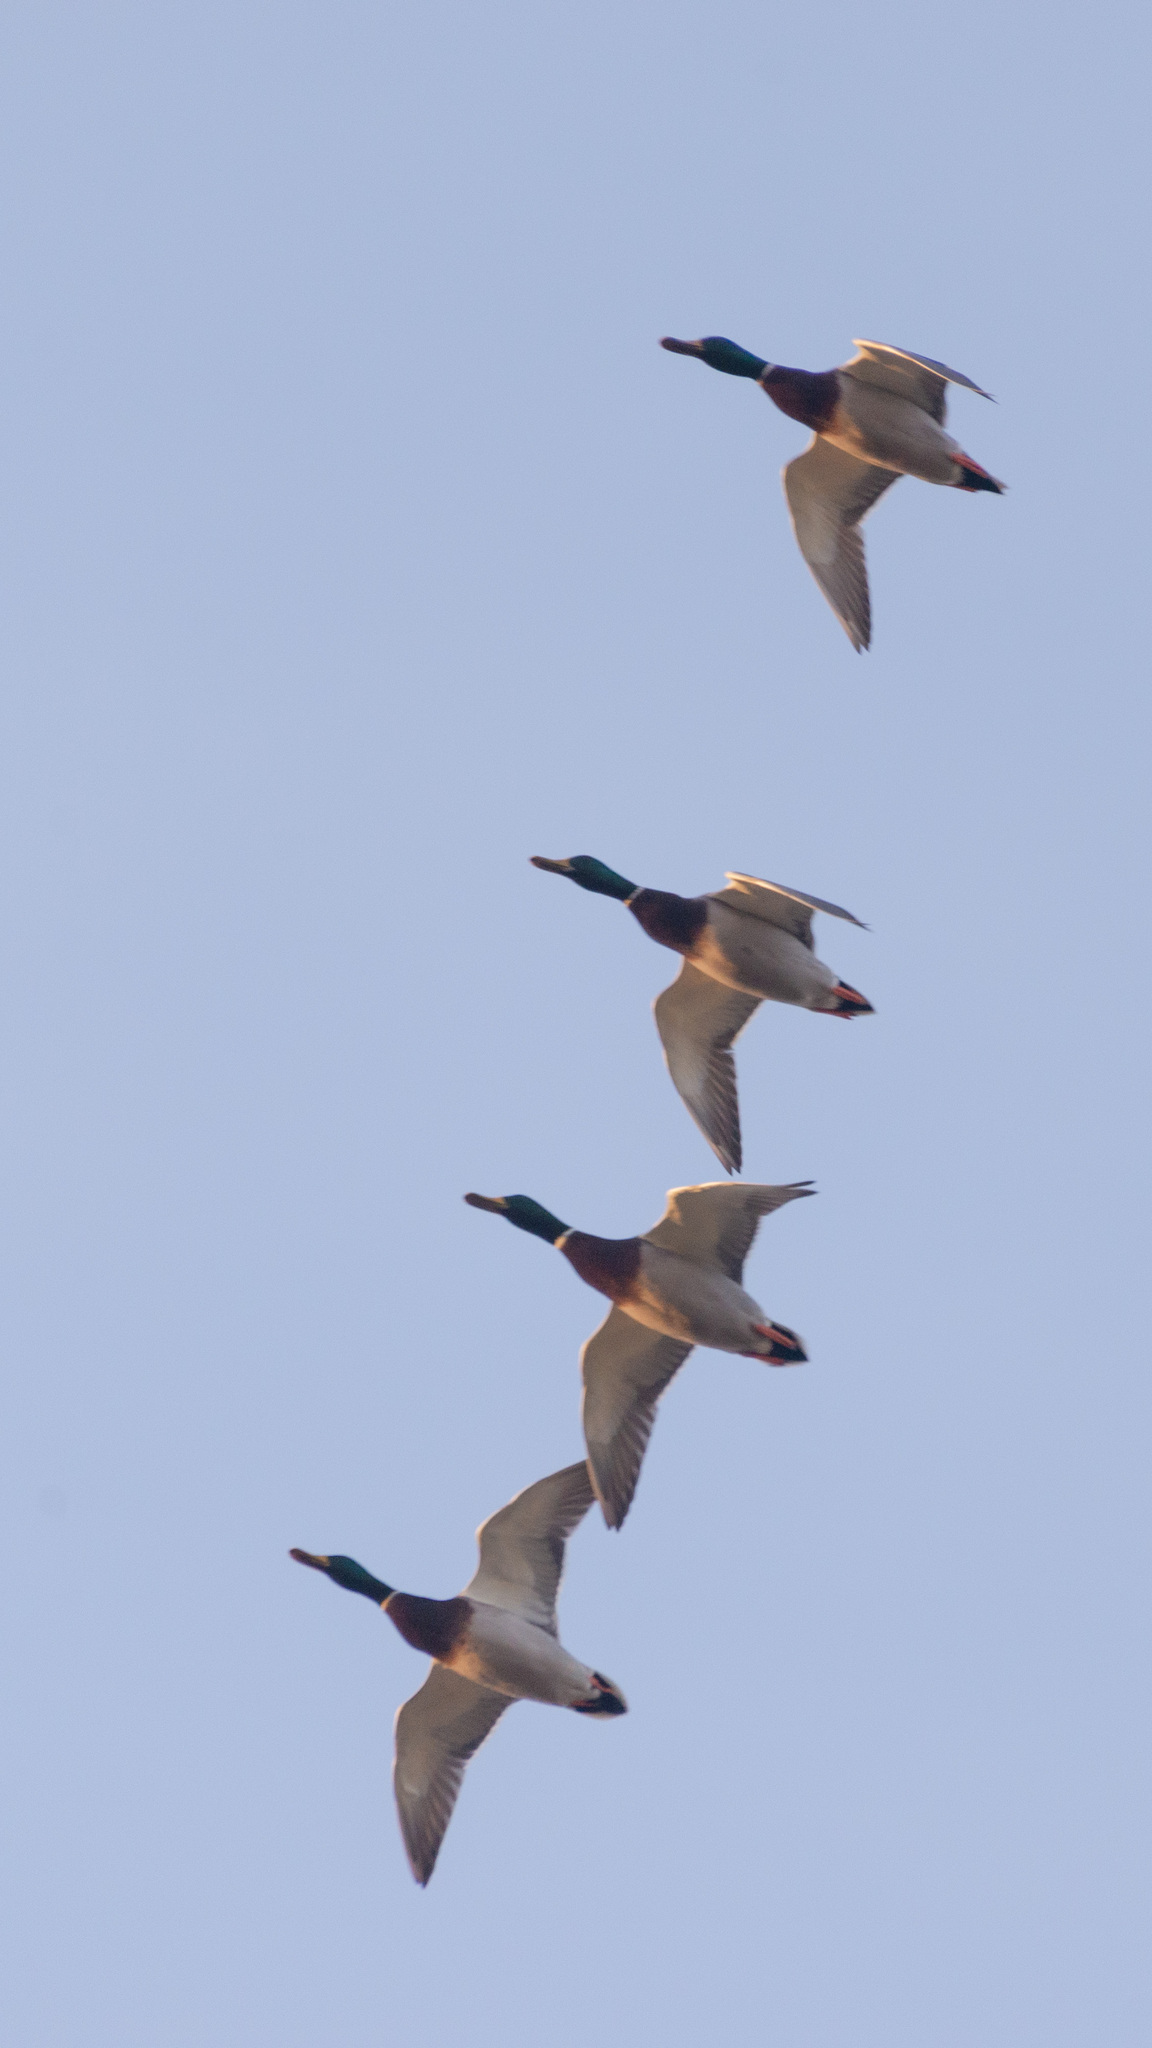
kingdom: Animalia
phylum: Chordata
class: Aves
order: Anseriformes
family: Anatidae
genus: Anas
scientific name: Anas platyrhynchos
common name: Mallard
